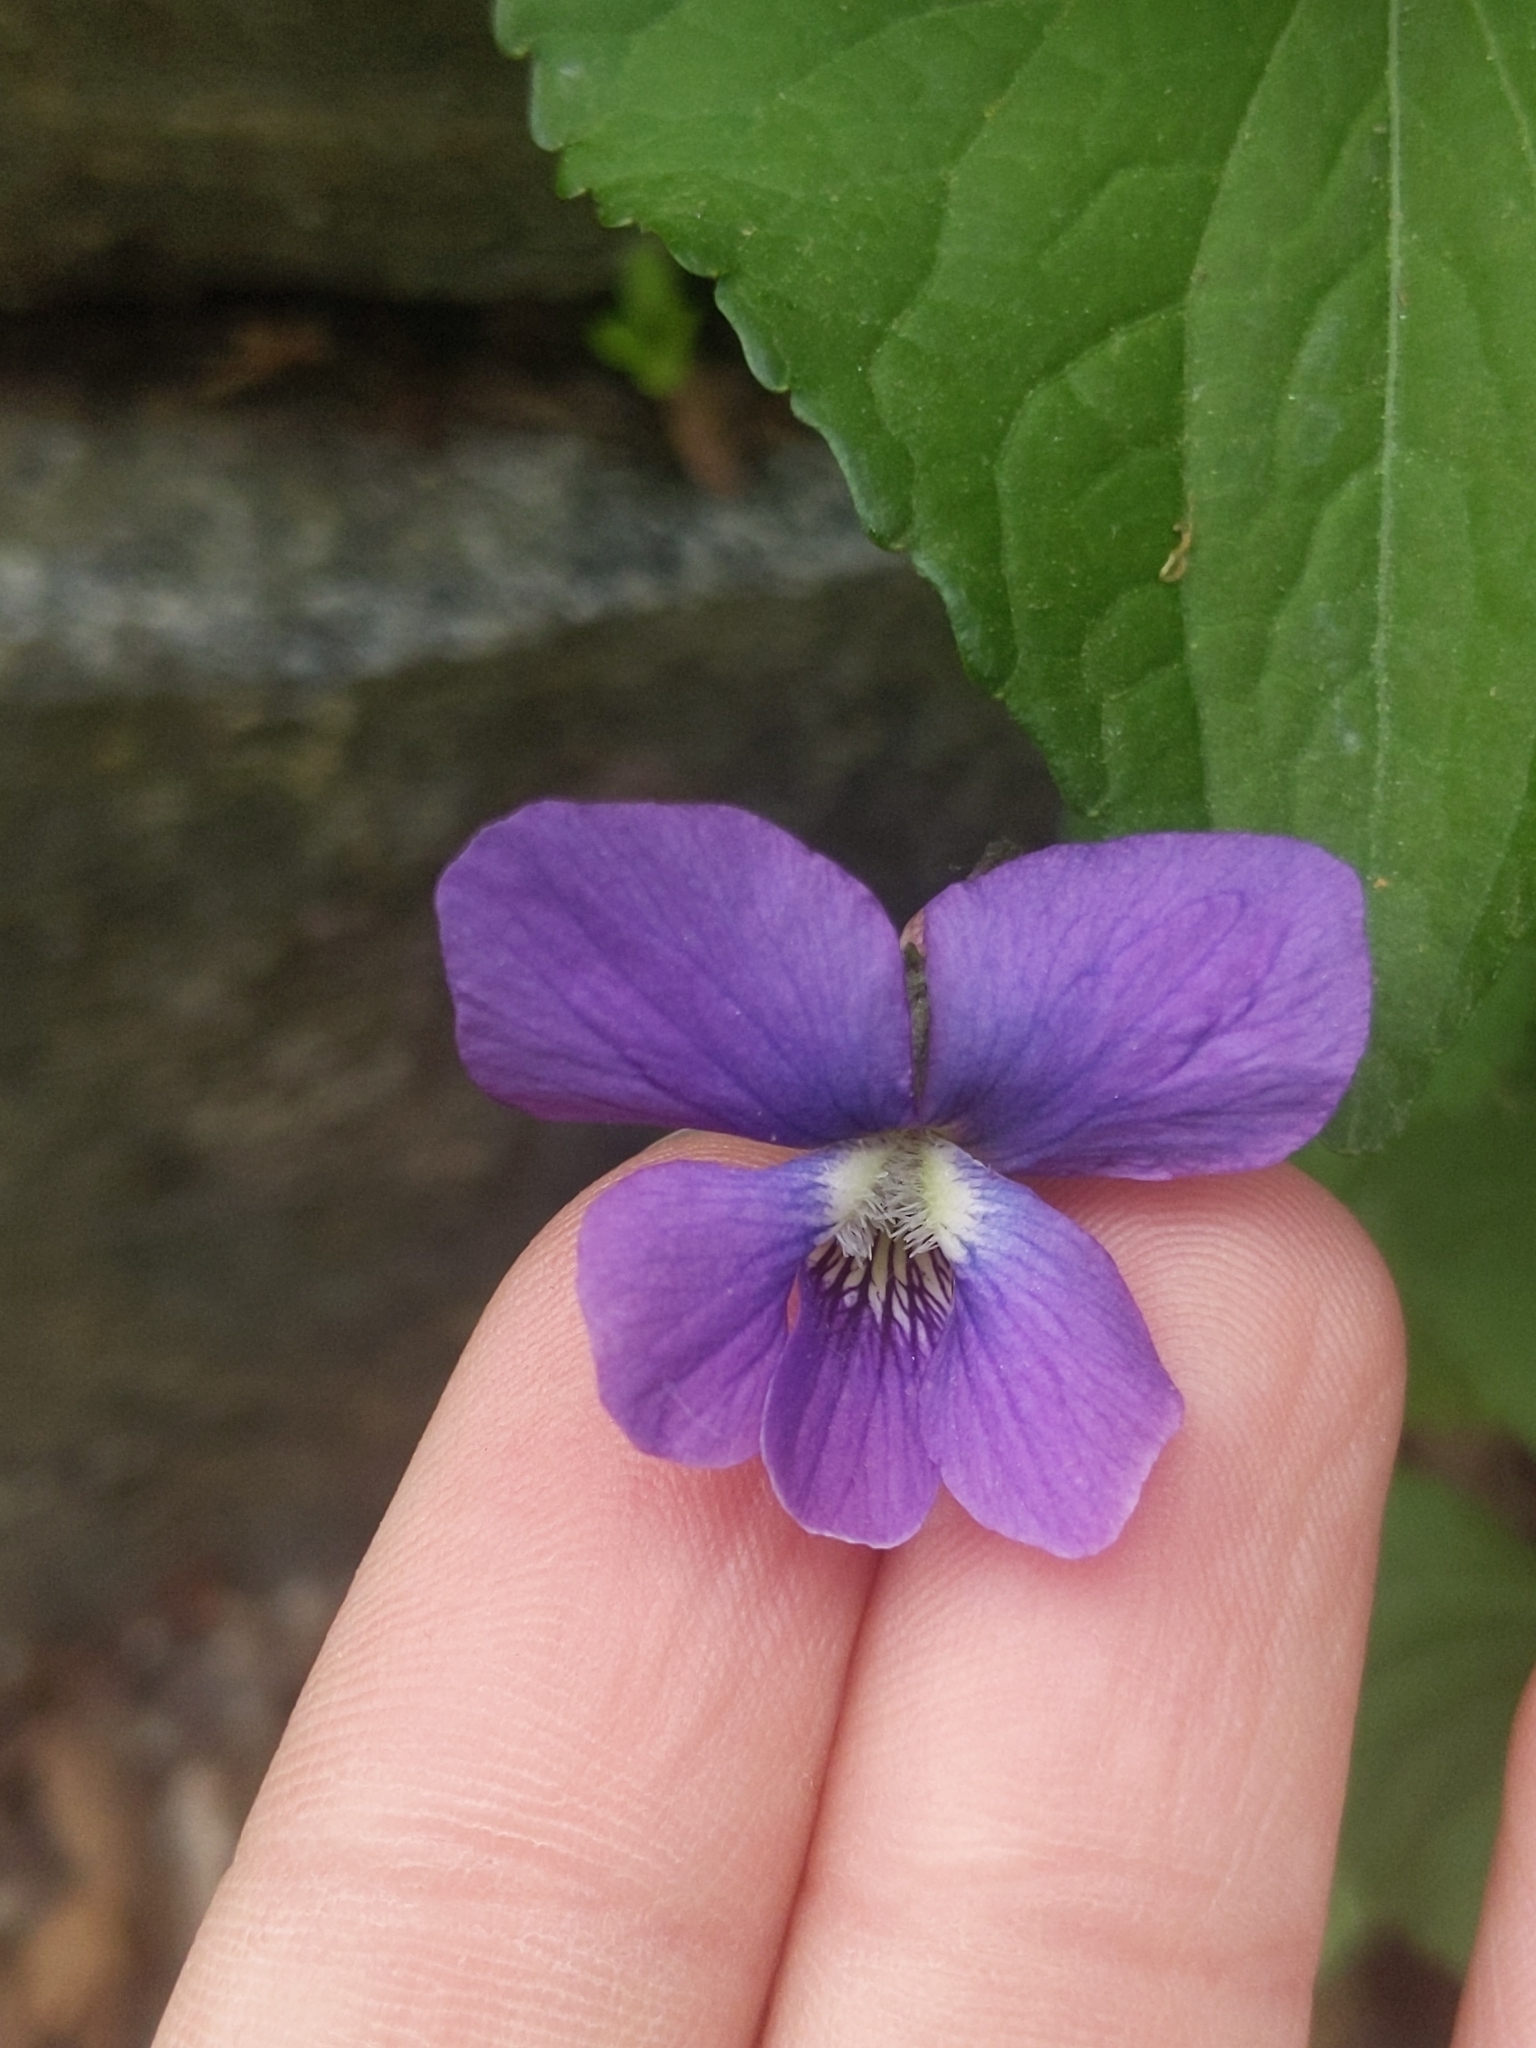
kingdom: Plantae
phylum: Tracheophyta
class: Magnoliopsida
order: Malpighiales
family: Violaceae
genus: Viola
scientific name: Viola sororia
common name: Dooryard violet
